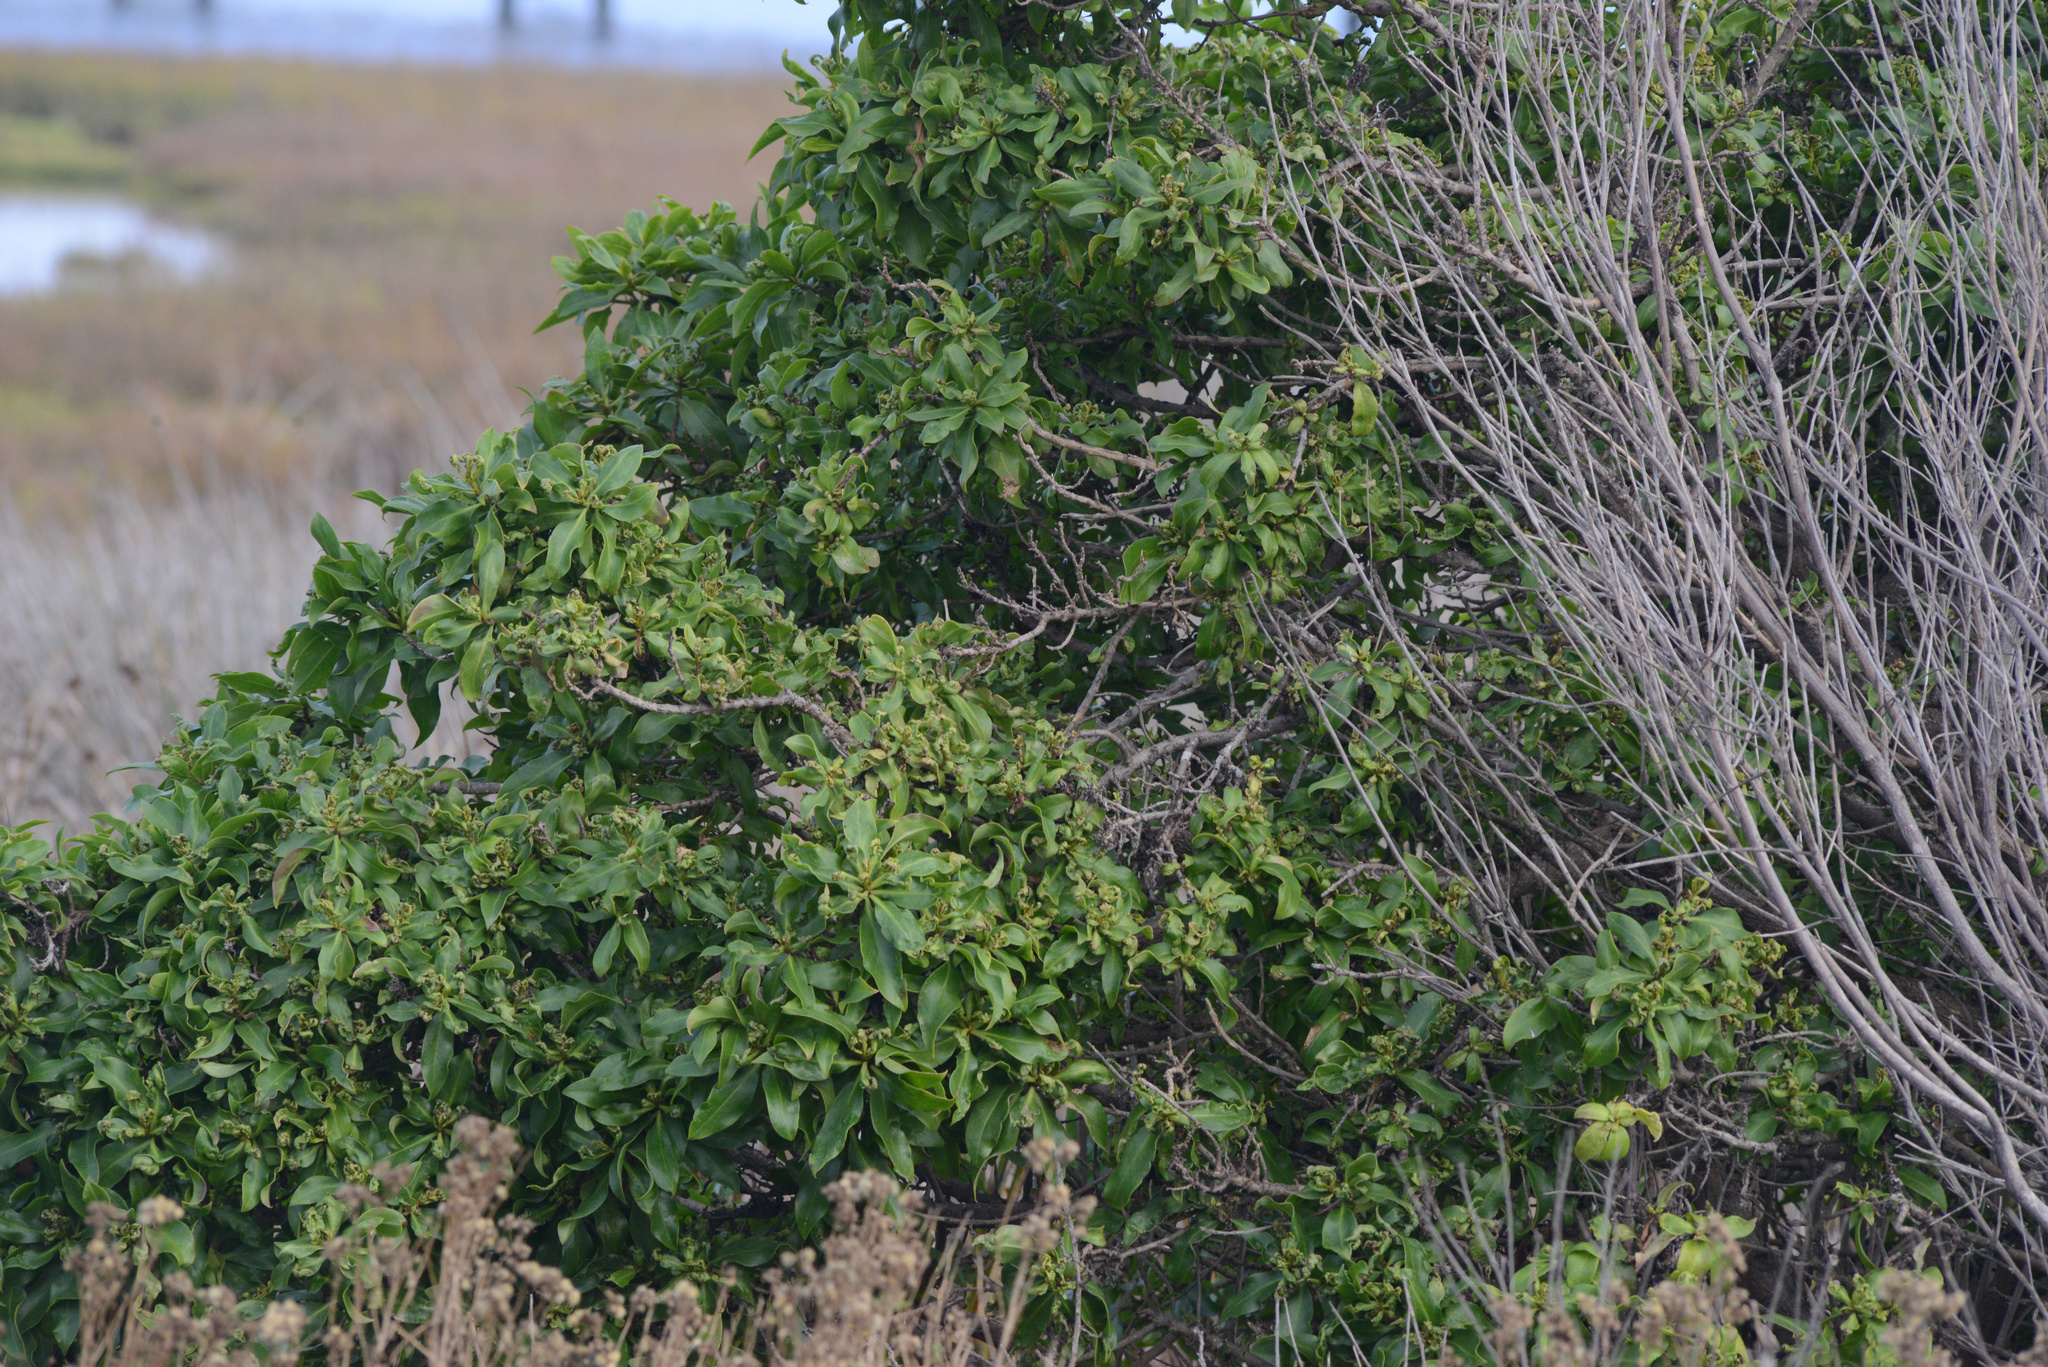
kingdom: Plantae
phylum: Tracheophyta
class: Magnoliopsida
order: Lamiales
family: Scrophulariaceae
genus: Myoporum
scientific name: Myoporum laetum
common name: Ngaio tree
